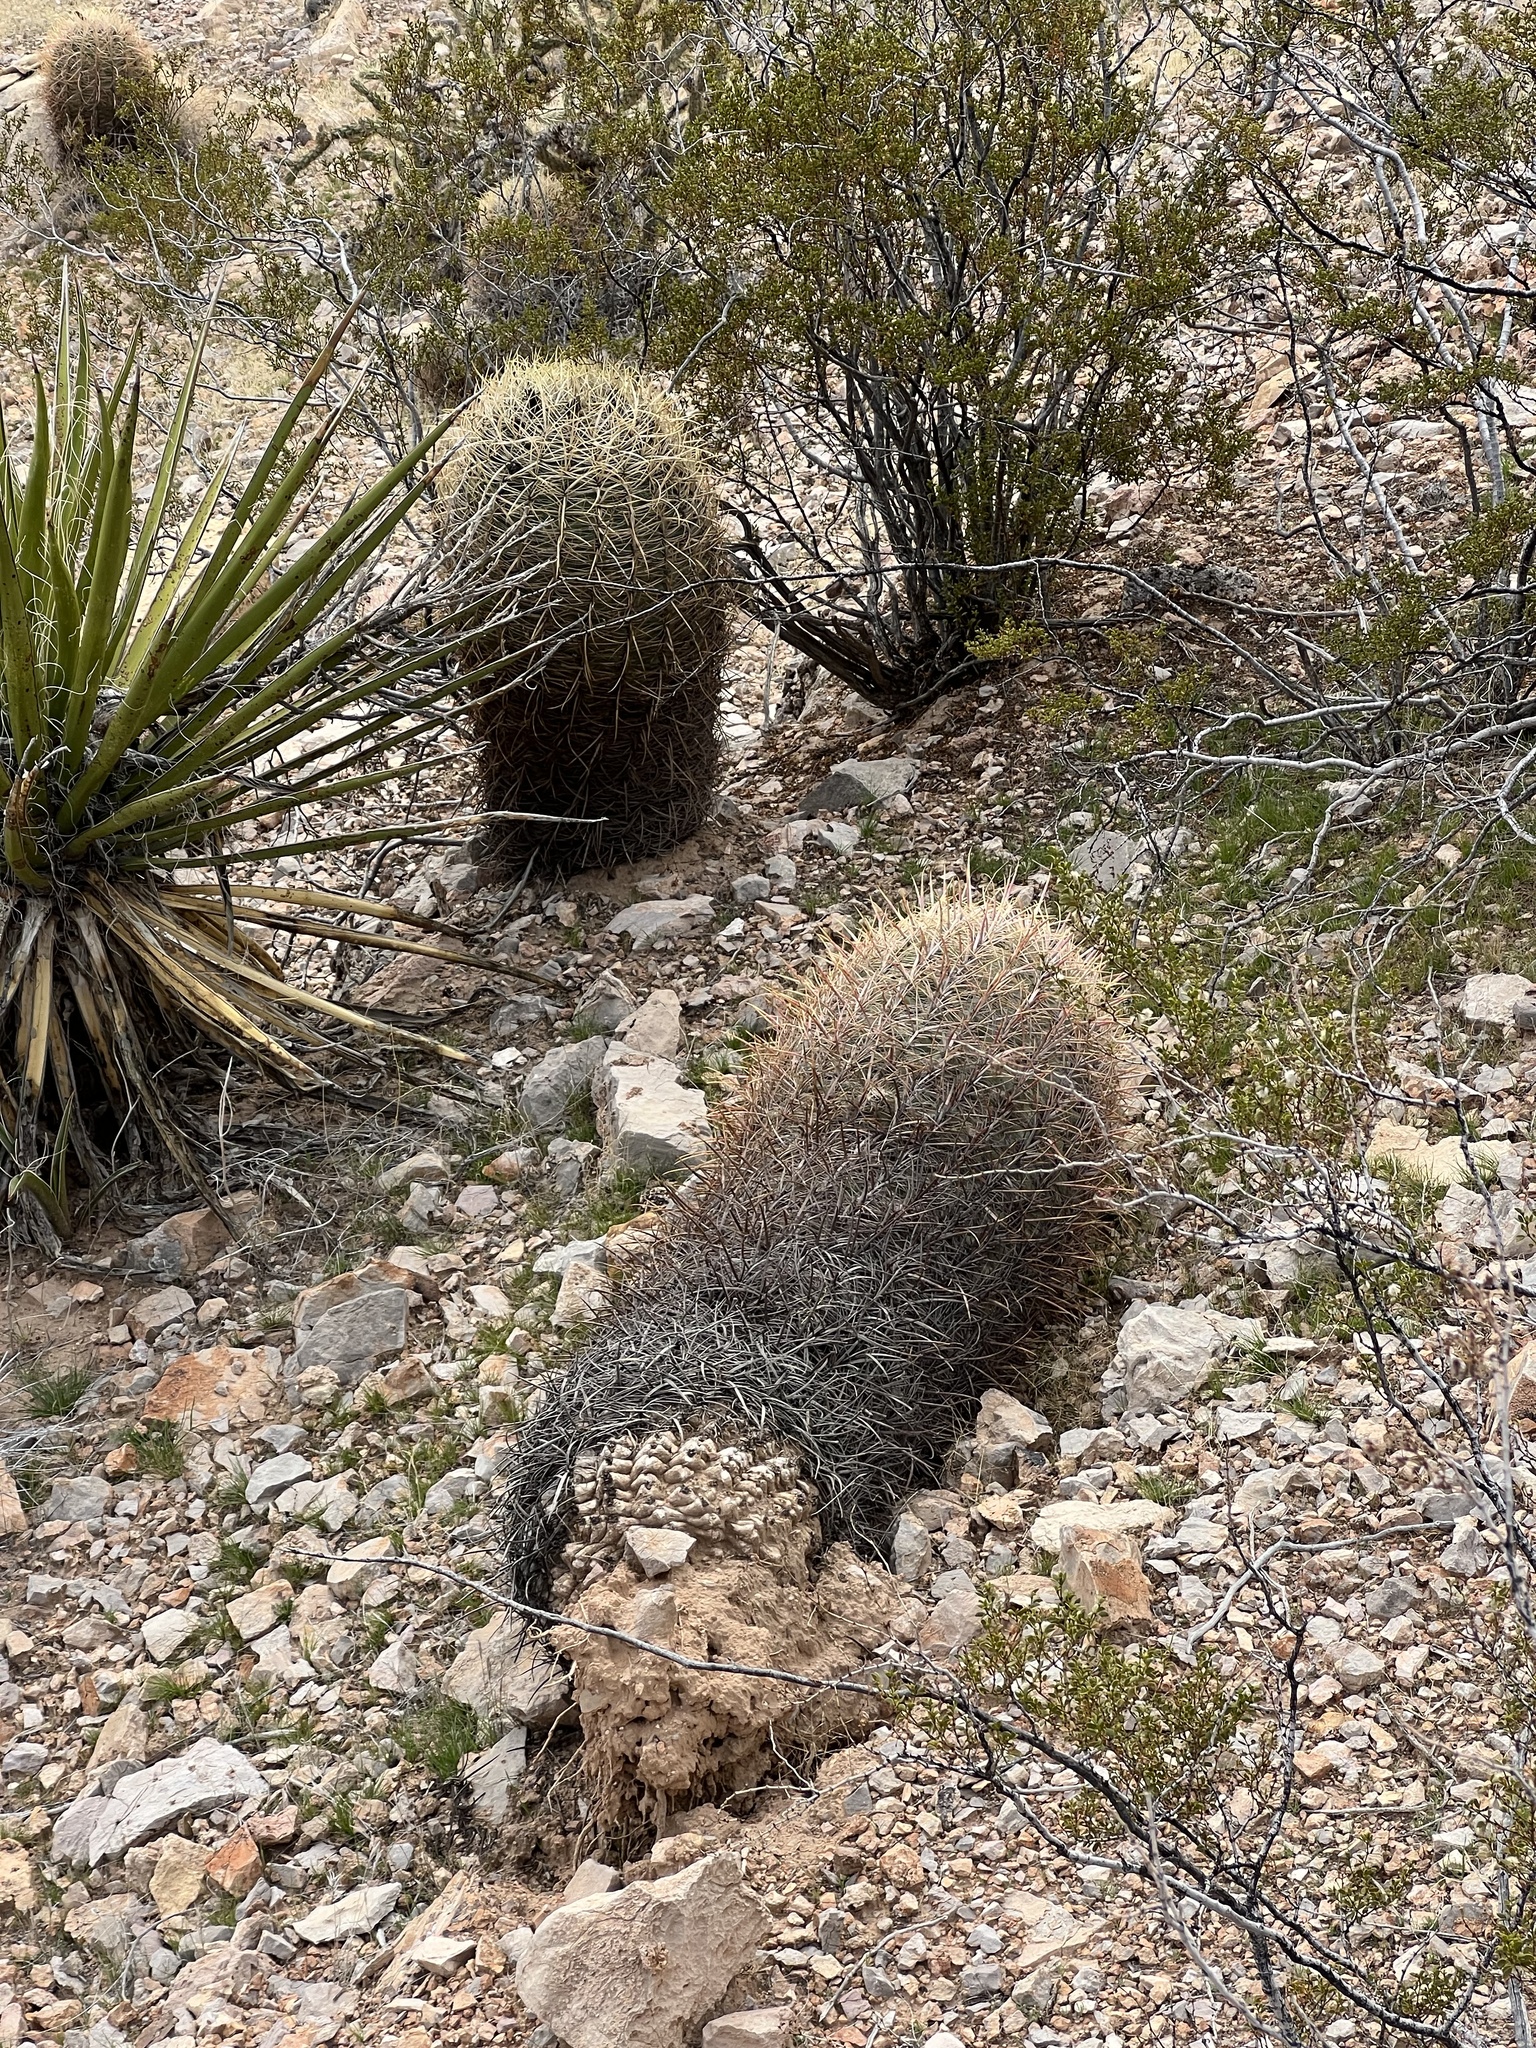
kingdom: Plantae
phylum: Tracheophyta
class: Magnoliopsida
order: Caryophyllales
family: Cactaceae
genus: Ferocactus
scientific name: Ferocactus cylindraceus
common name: California barrel cactus
